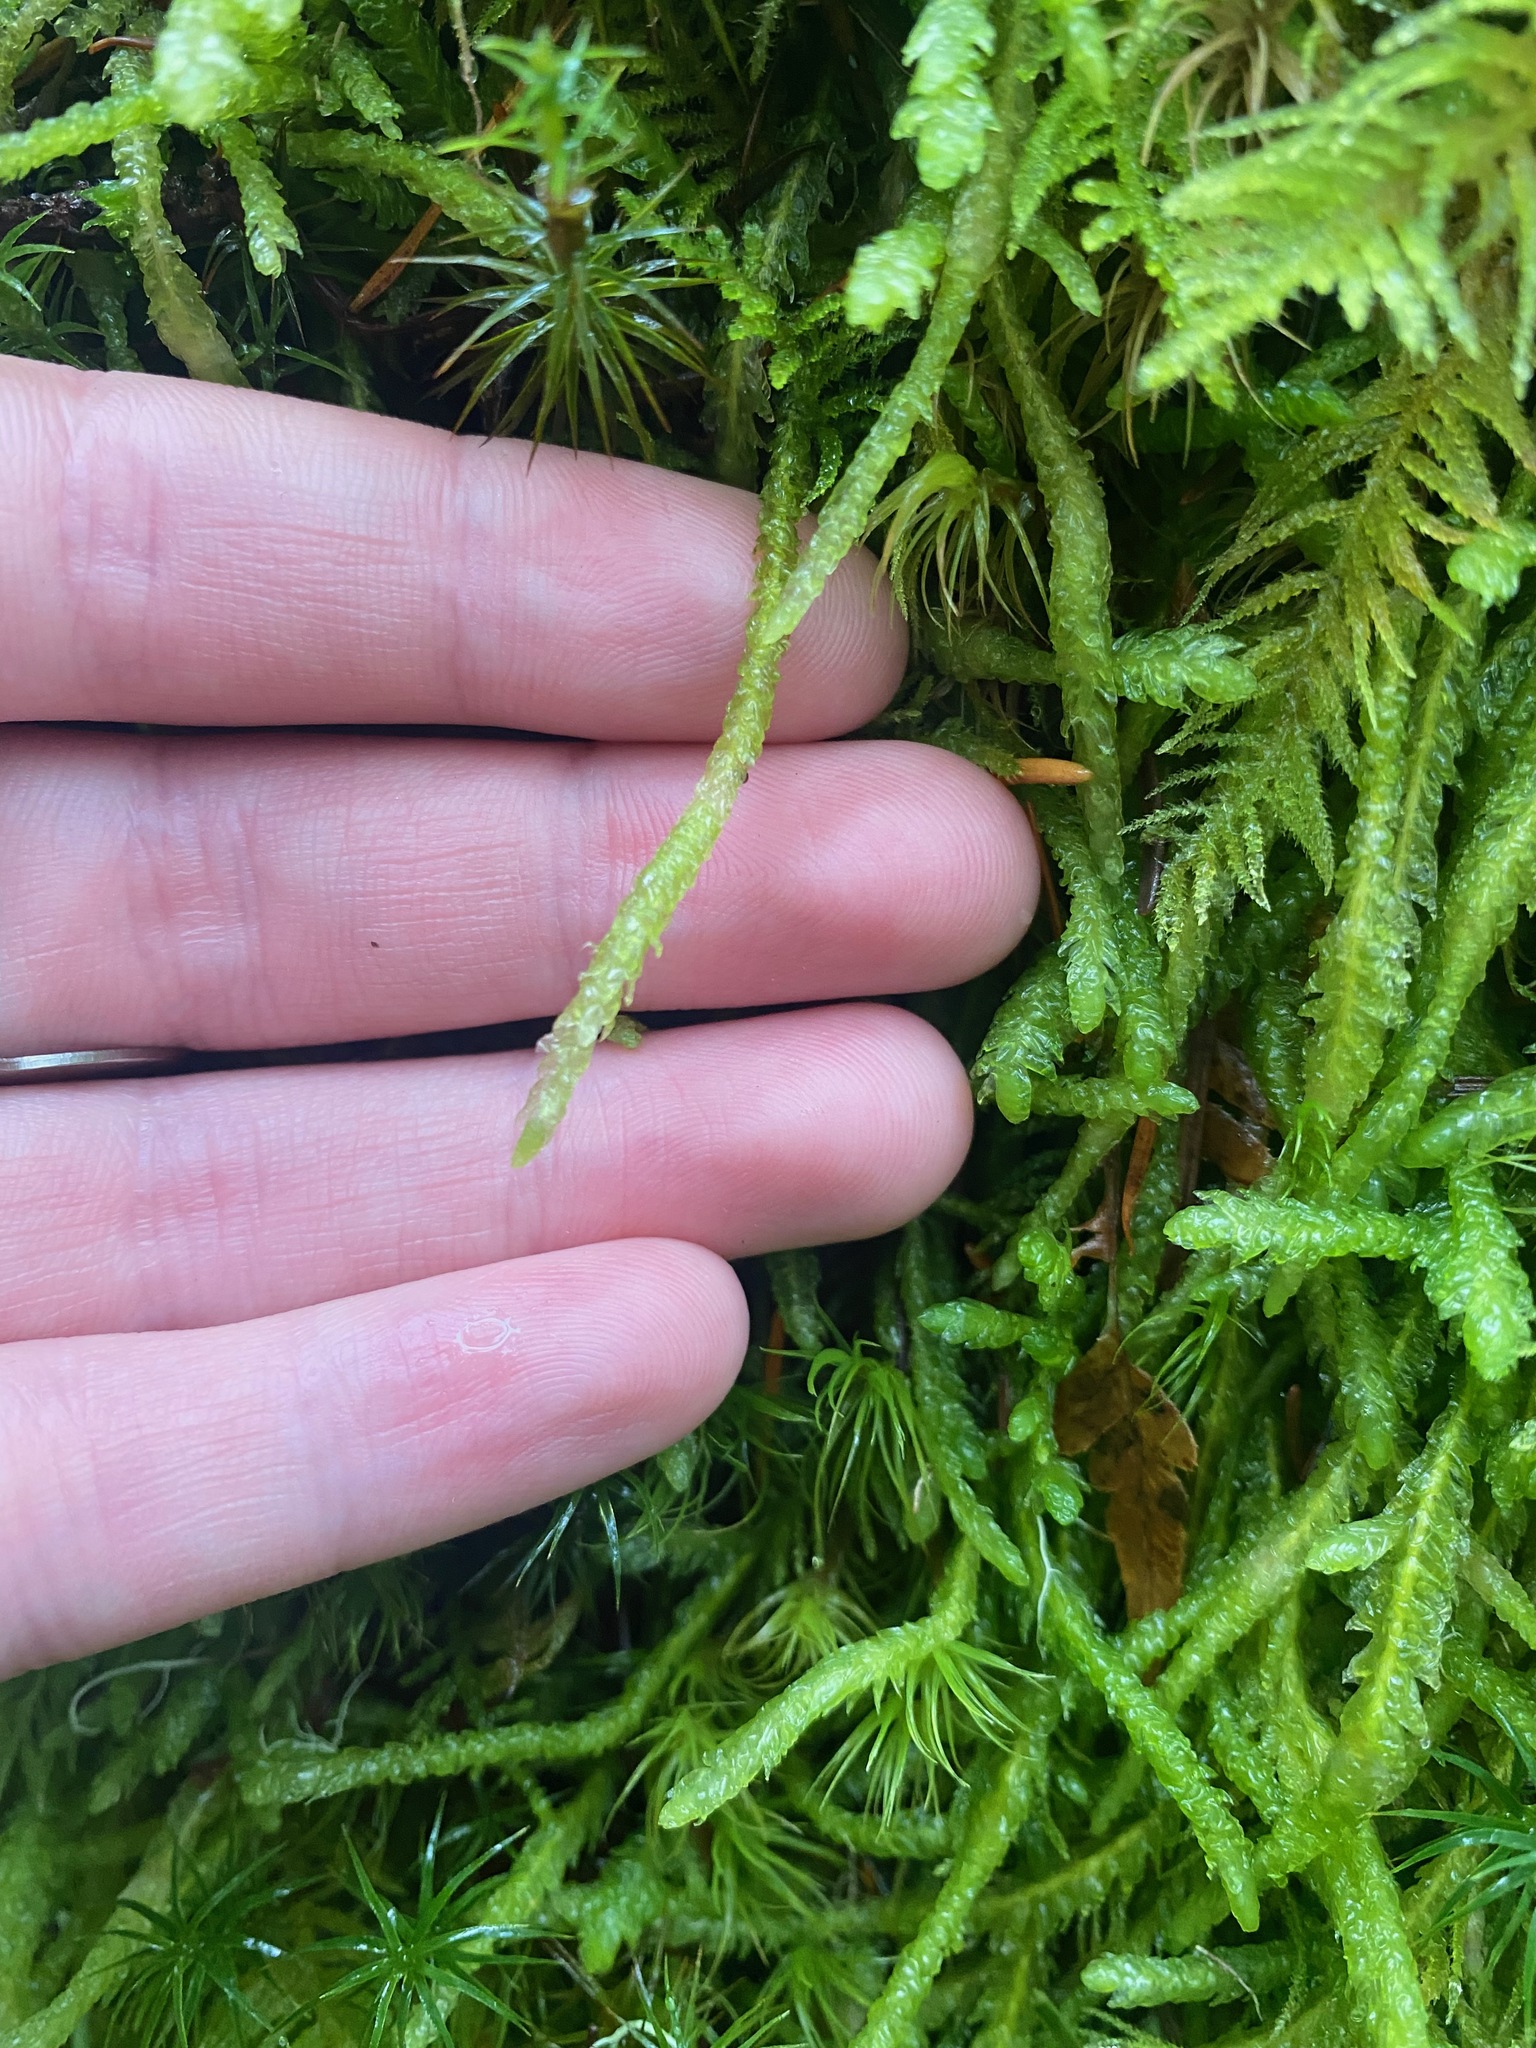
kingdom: Plantae
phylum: Bryophyta
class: Bryopsida
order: Hypnales
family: Plagiotheciaceae
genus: Plagiothecium
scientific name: Plagiothecium undulatum
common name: Waved silk-moss
